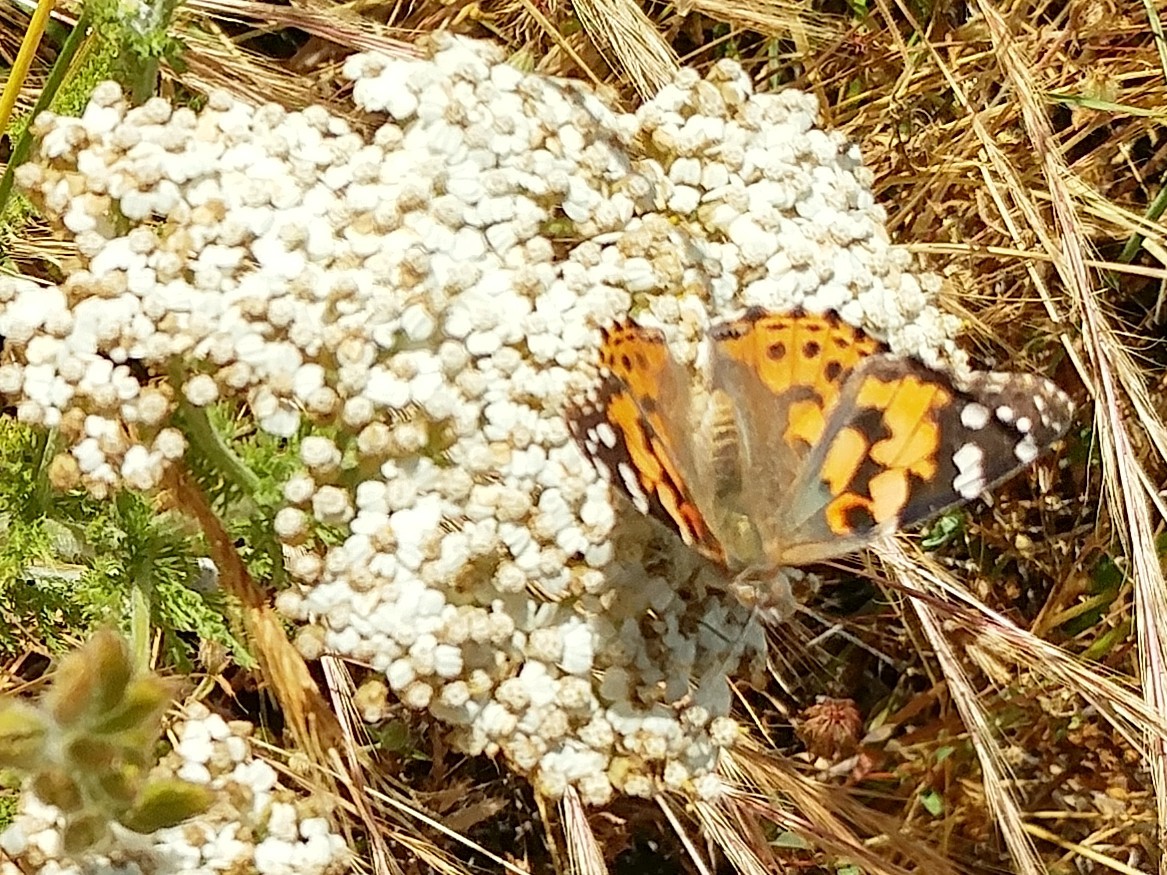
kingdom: Animalia
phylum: Arthropoda
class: Insecta
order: Lepidoptera
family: Nymphalidae
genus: Vanessa
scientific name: Vanessa cardui
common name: Painted lady
